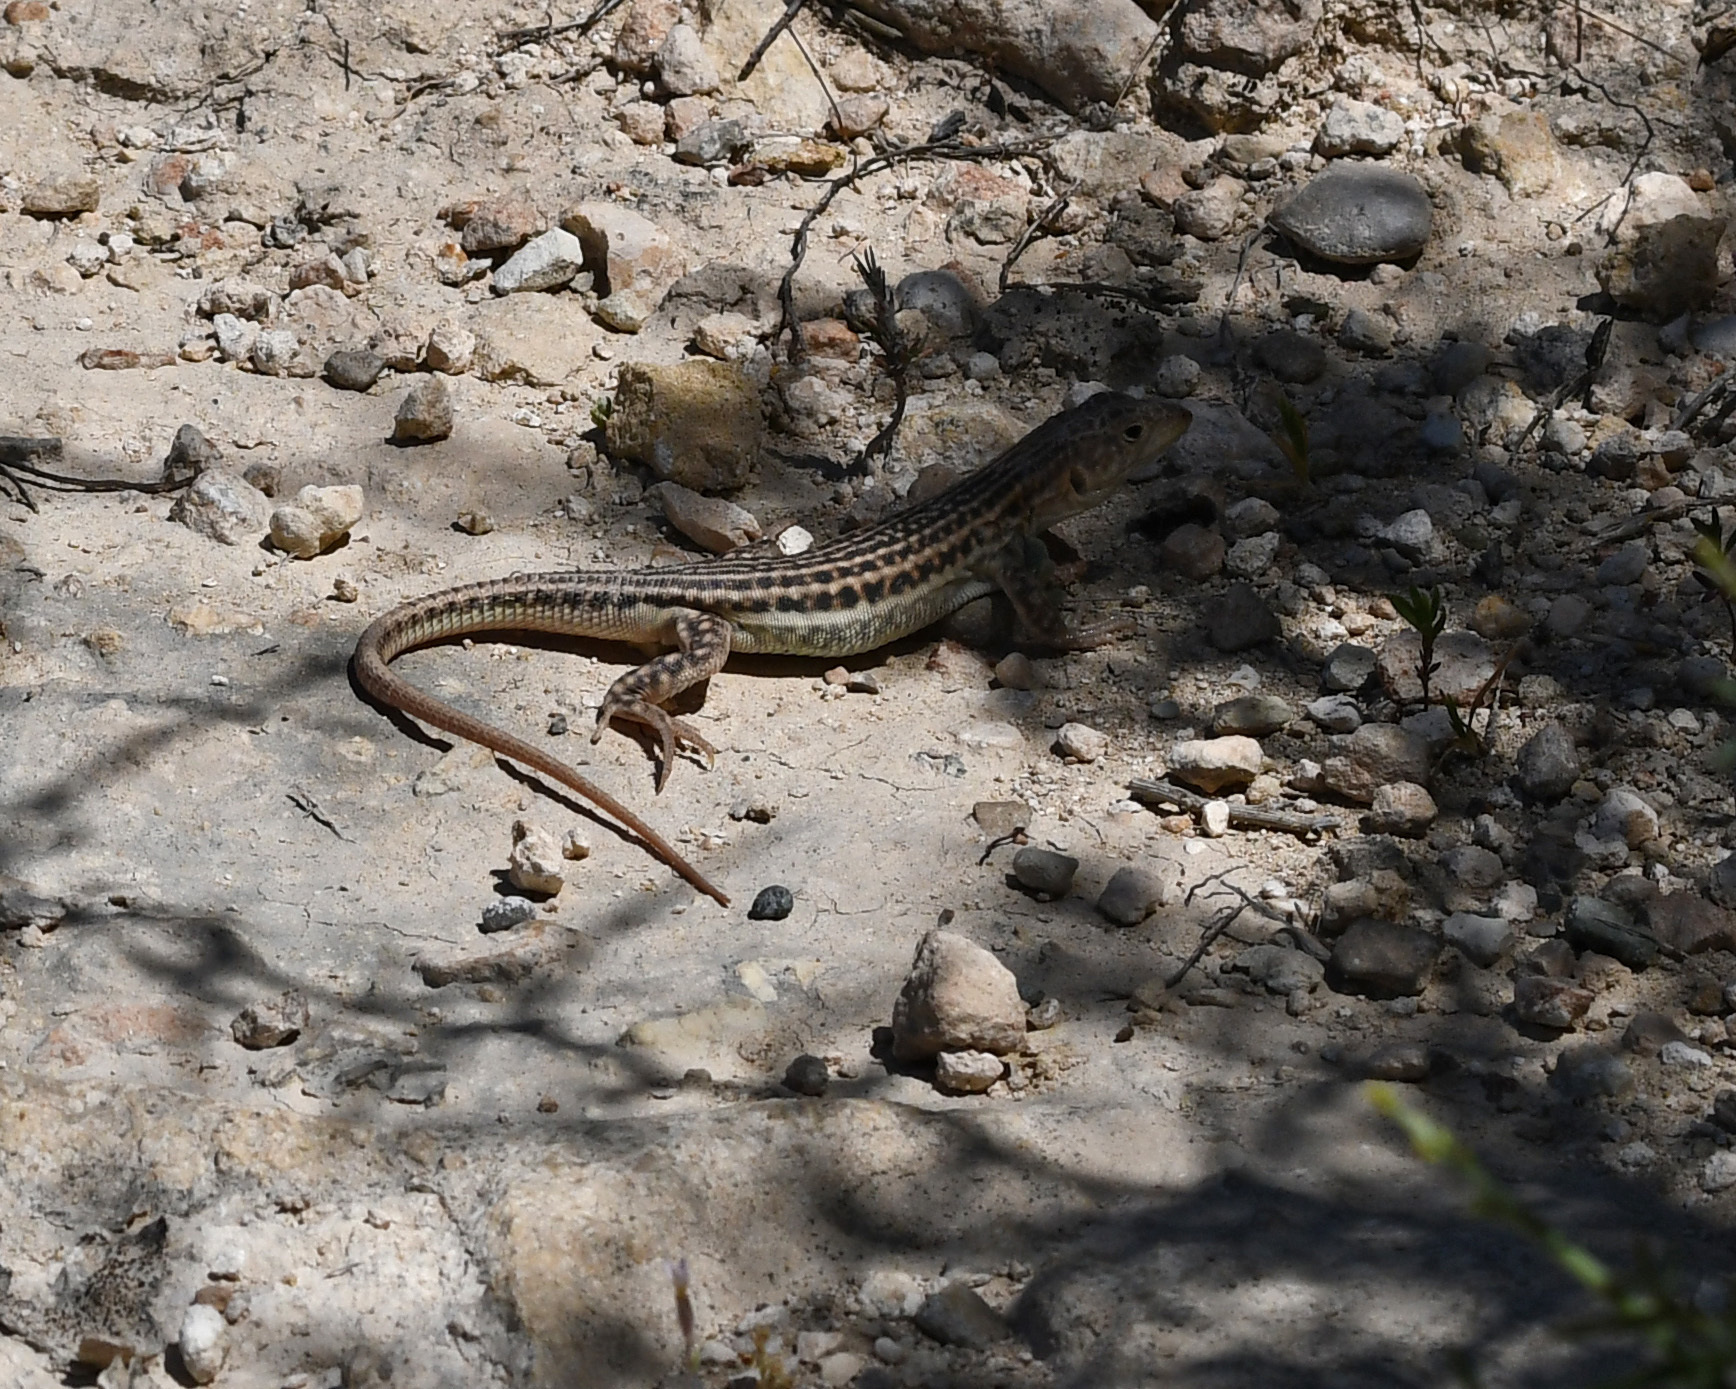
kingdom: Animalia
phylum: Chordata
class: Squamata
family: Lacertidae
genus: Acanthodactylus
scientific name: Acanthodactylus schreiberi
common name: Schreiber's fringe-fingered lizard
